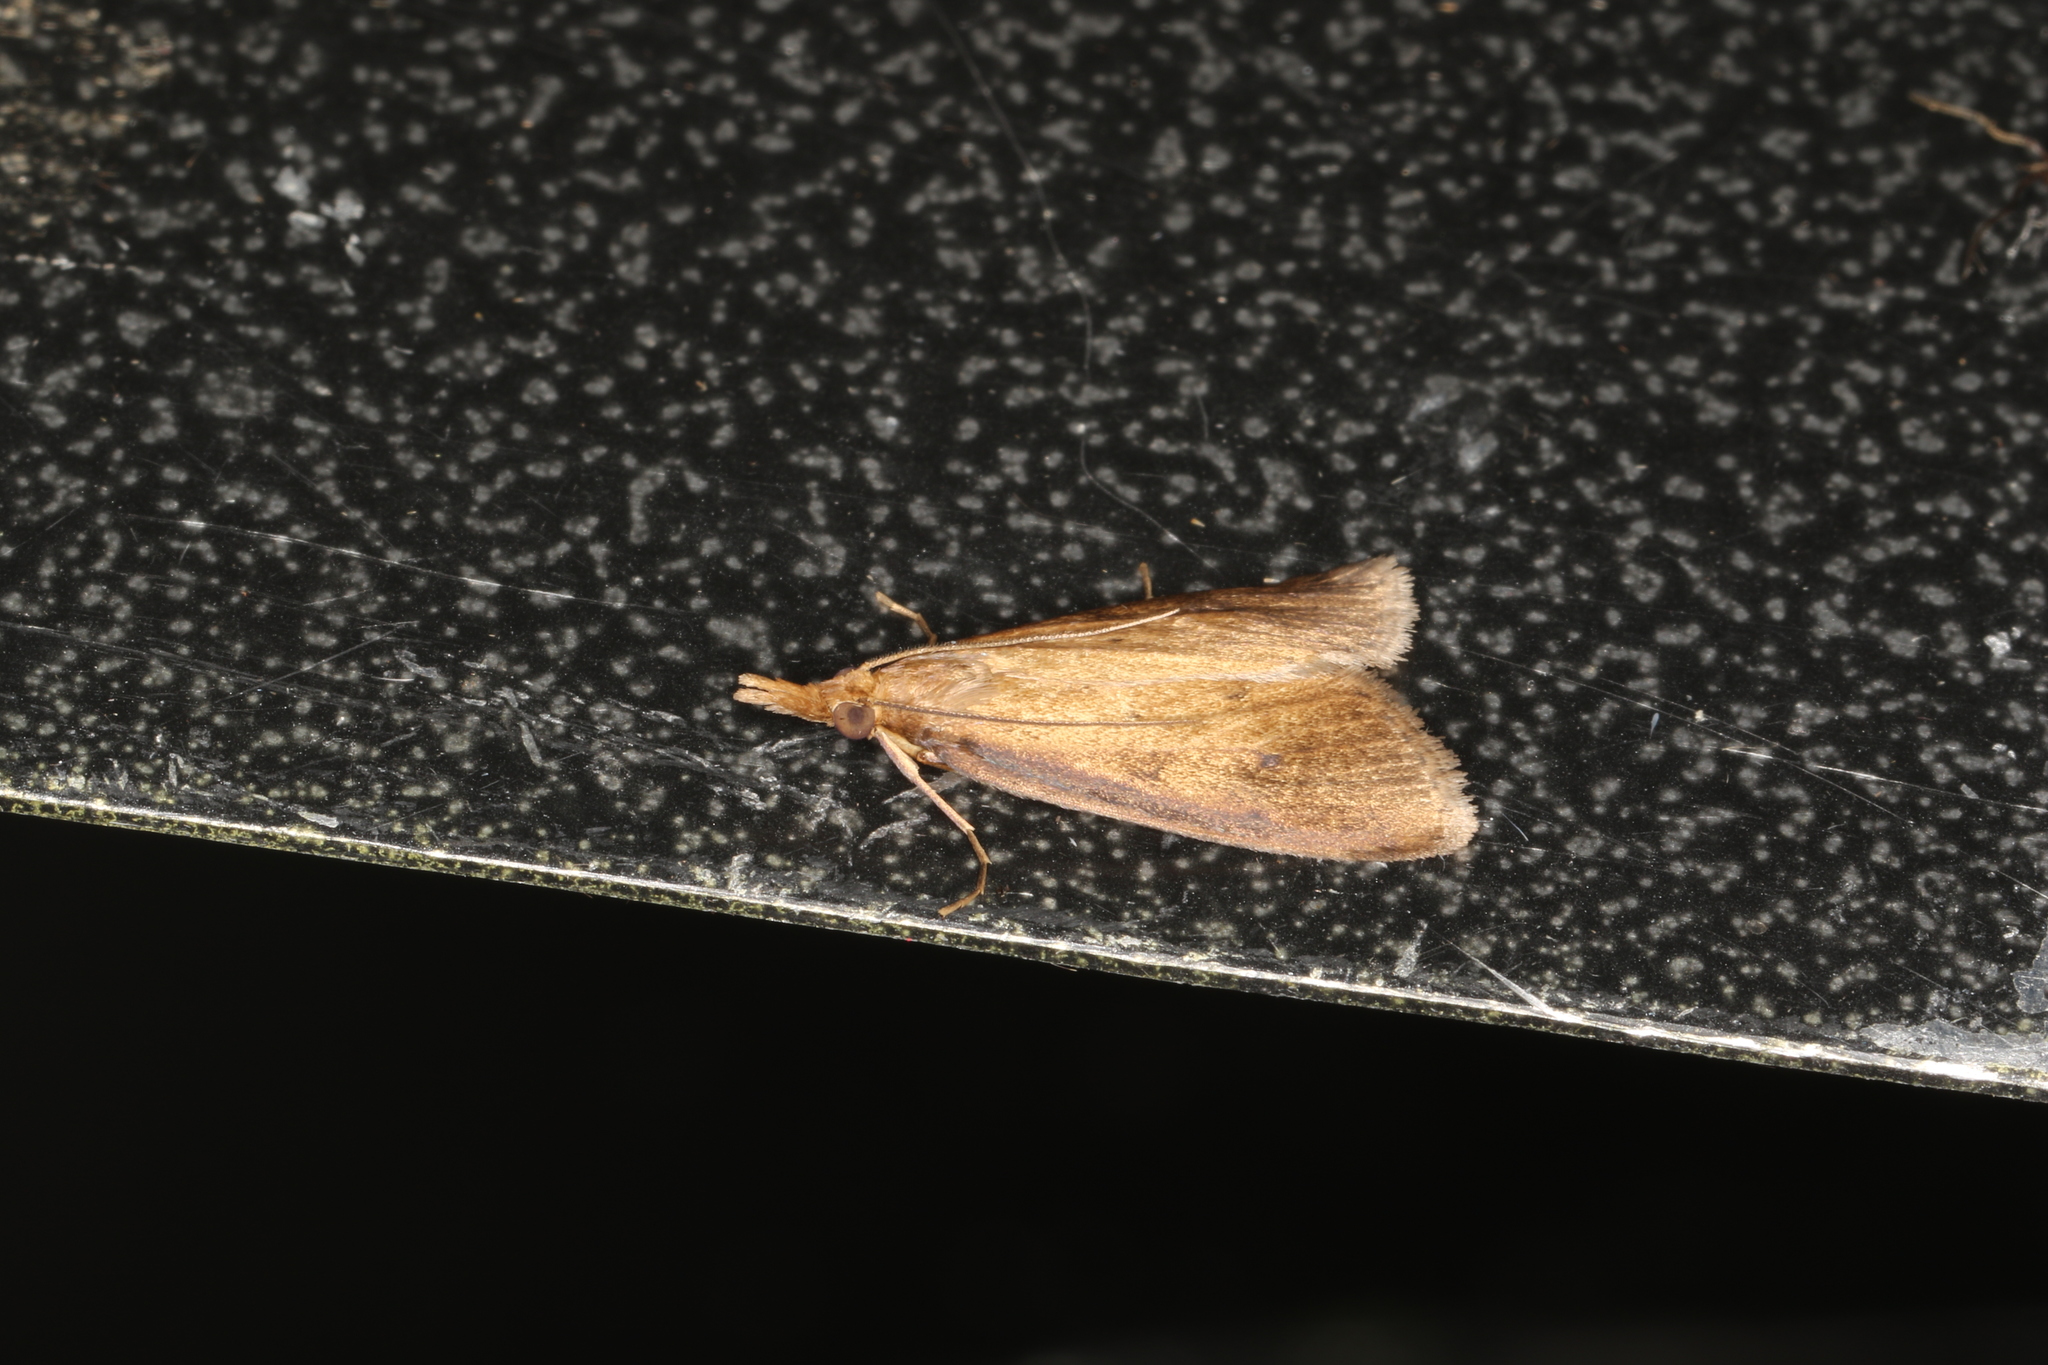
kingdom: Animalia
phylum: Arthropoda
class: Insecta
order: Lepidoptera
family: Crambidae
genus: Calamotropha
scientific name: Calamotropha leptogrammellus
